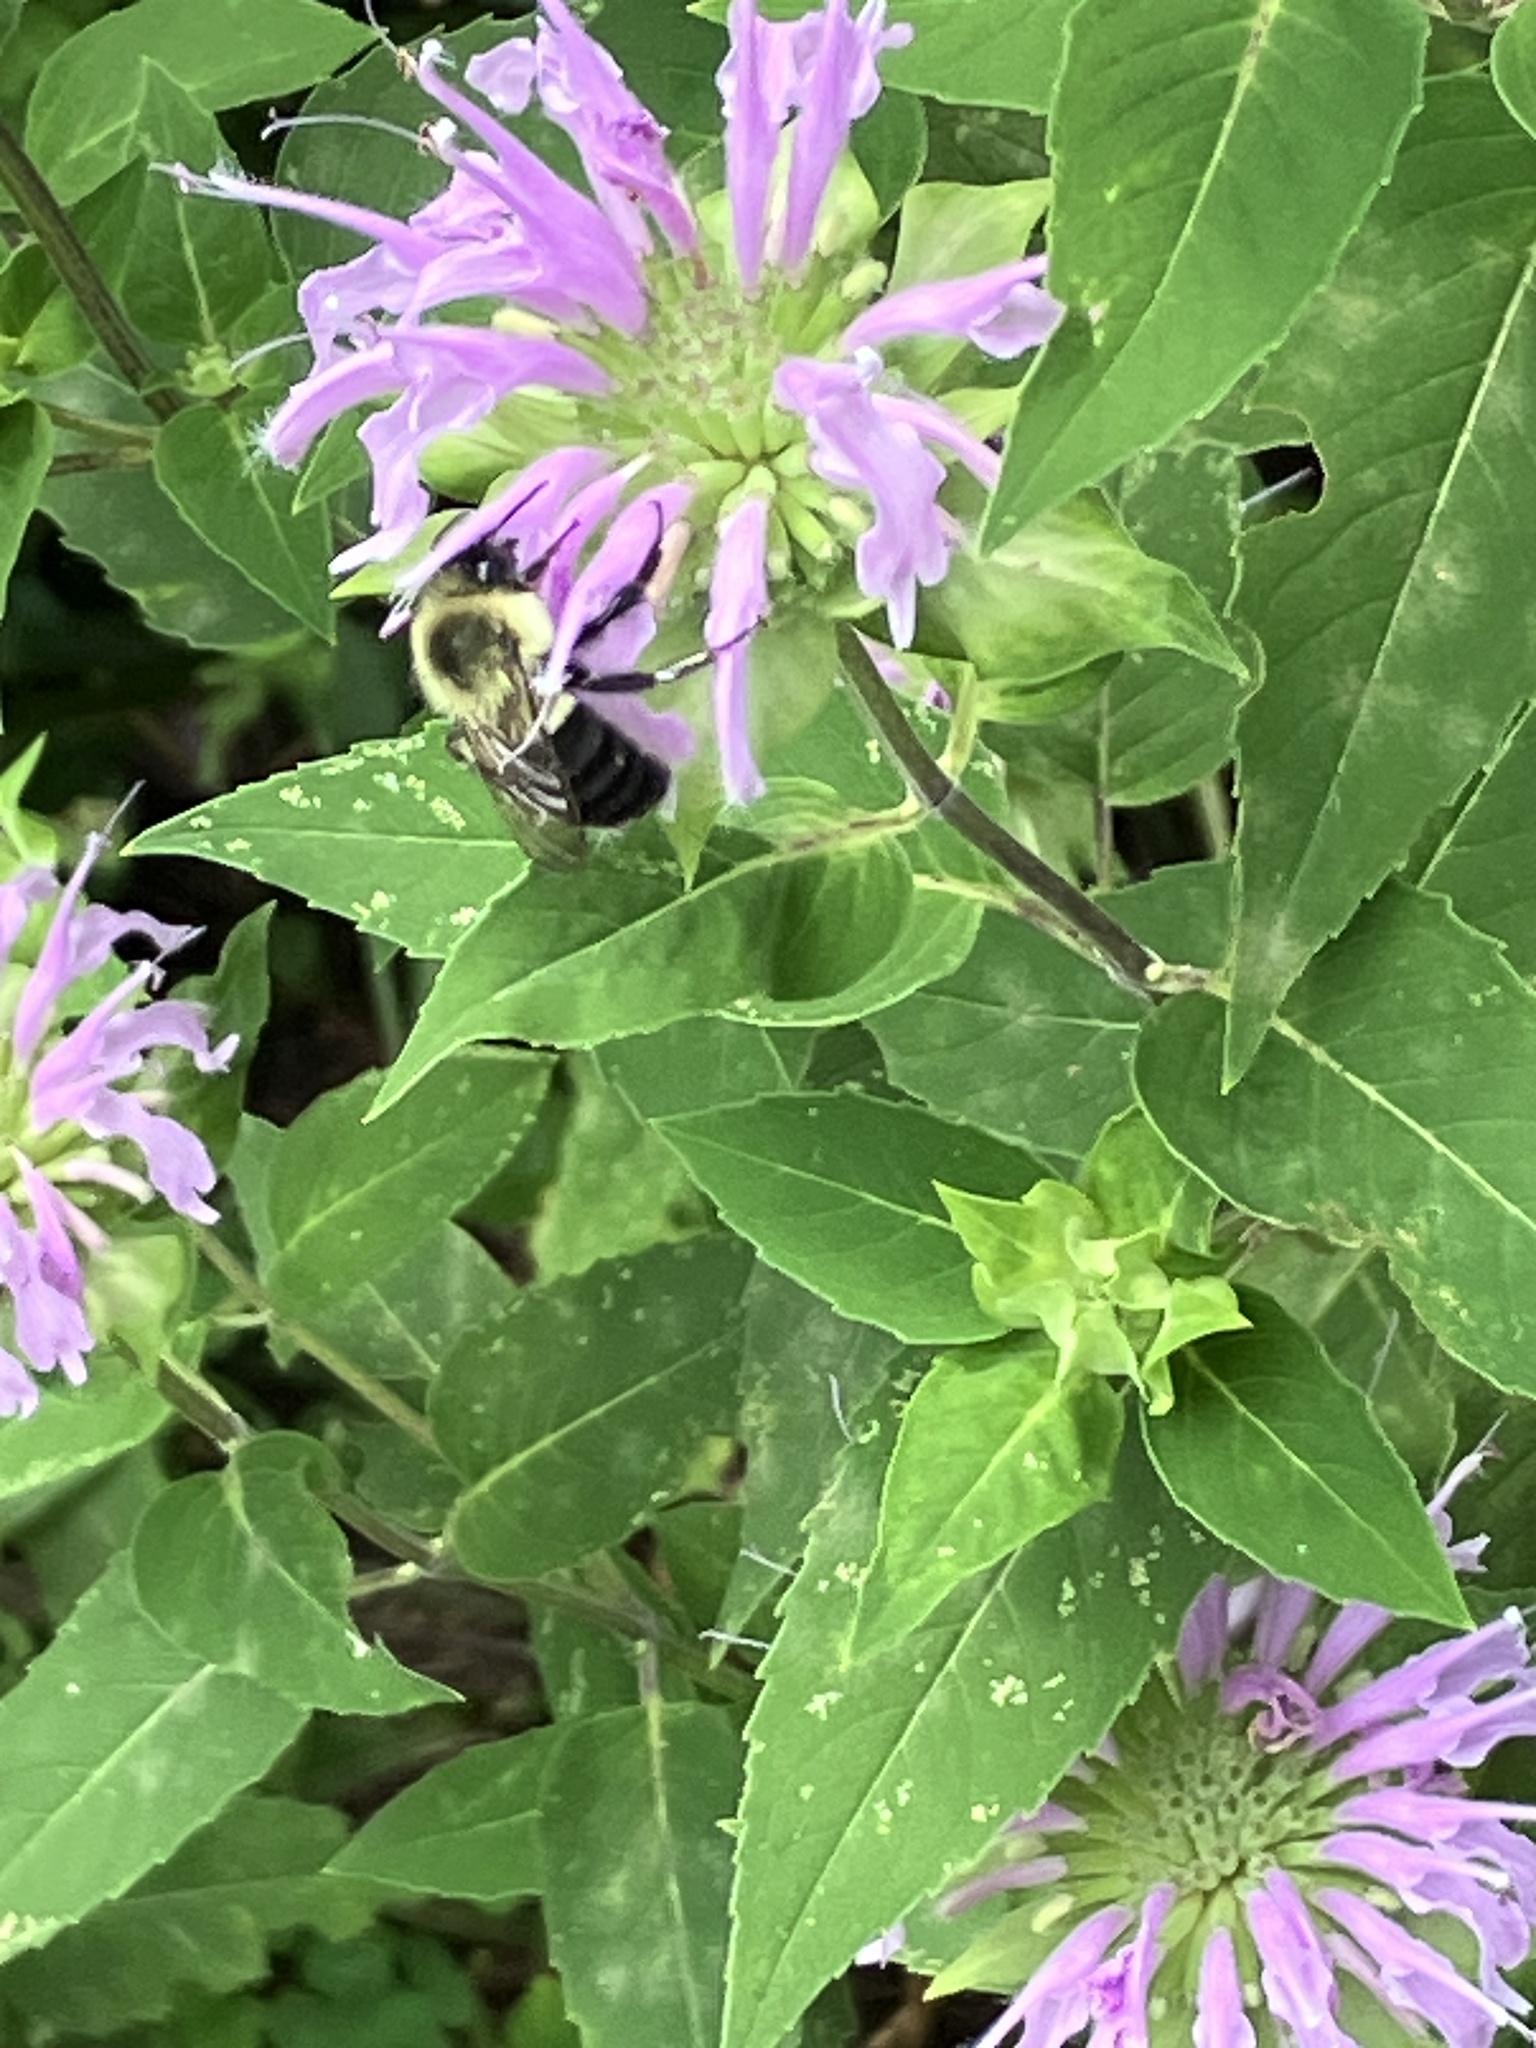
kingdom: Animalia
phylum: Arthropoda
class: Insecta
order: Hymenoptera
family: Apidae
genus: Bombus
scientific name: Bombus impatiens
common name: Common eastern bumble bee
